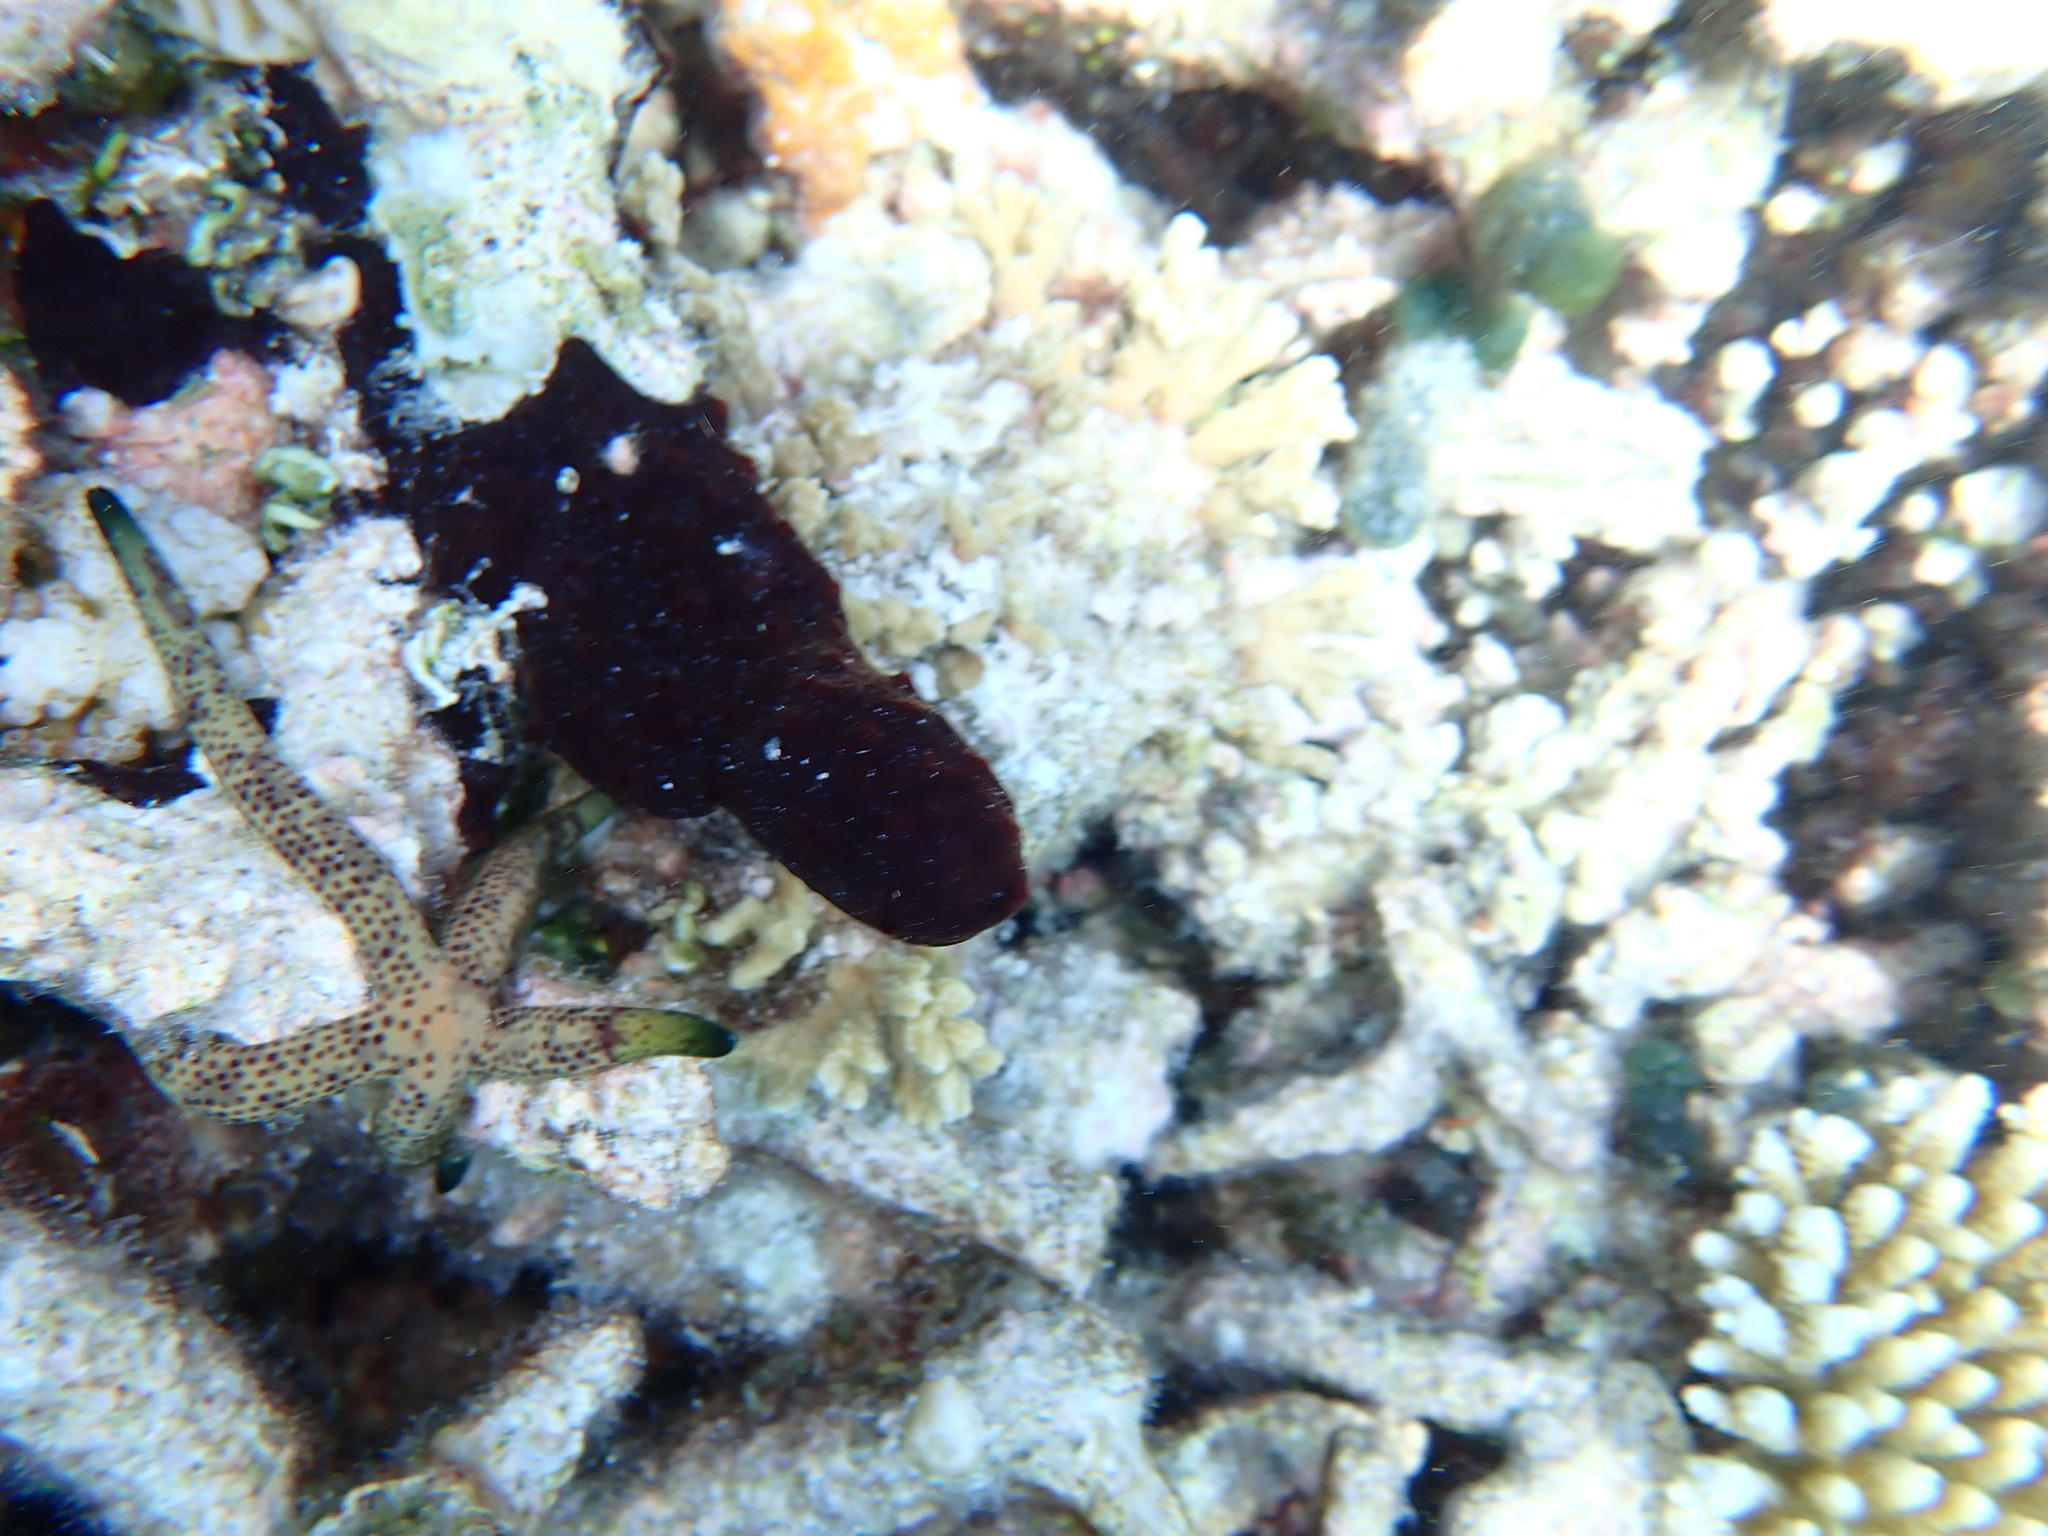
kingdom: Animalia
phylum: Echinodermata
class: Asteroidea
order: Valvatida
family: Ophidiasteridae
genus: Linckia
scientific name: Linckia multifora
